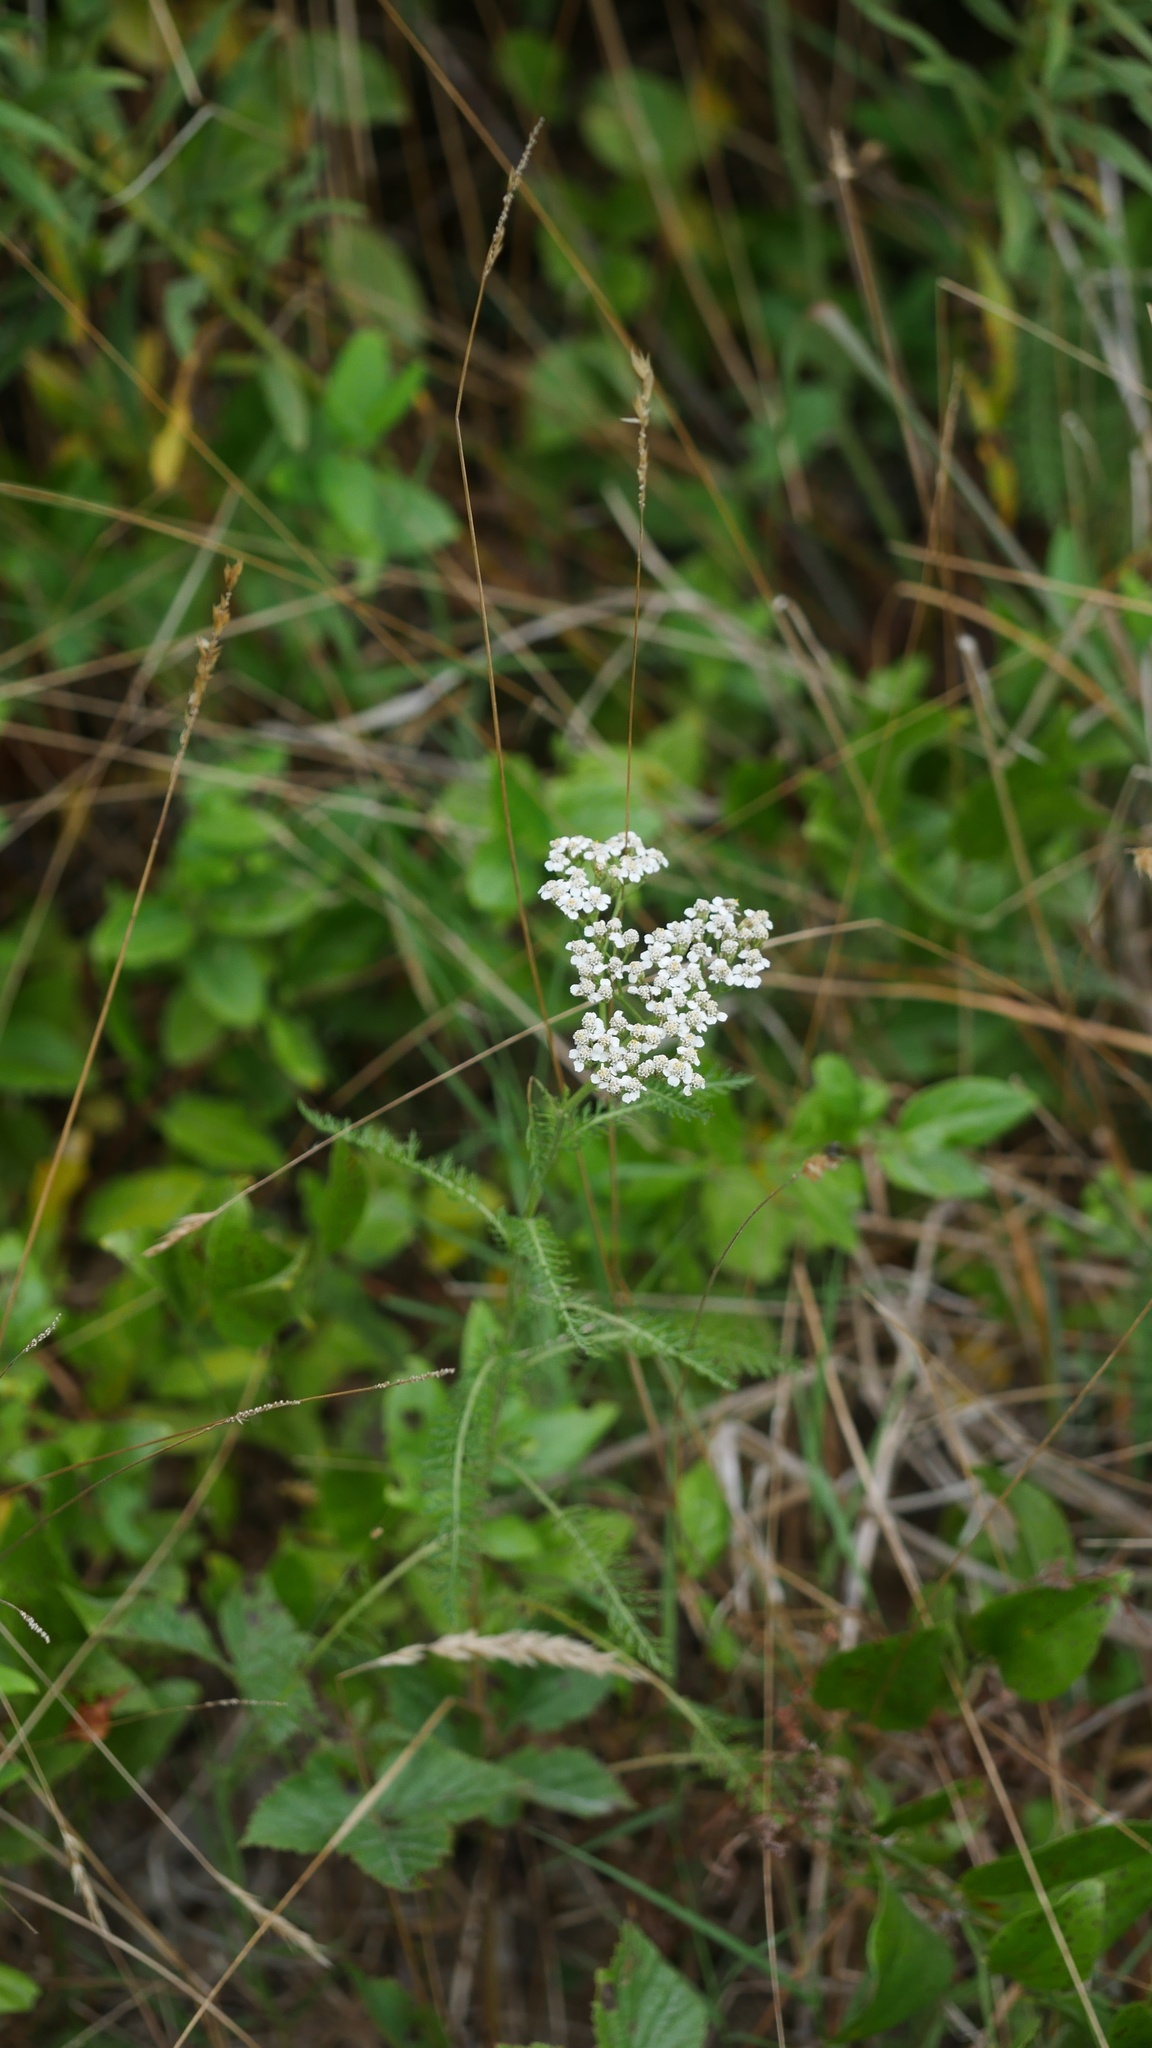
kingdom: Plantae
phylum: Tracheophyta
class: Magnoliopsida
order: Asterales
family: Asteraceae
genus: Achillea
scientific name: Achillea millefolium
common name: Yarrow
